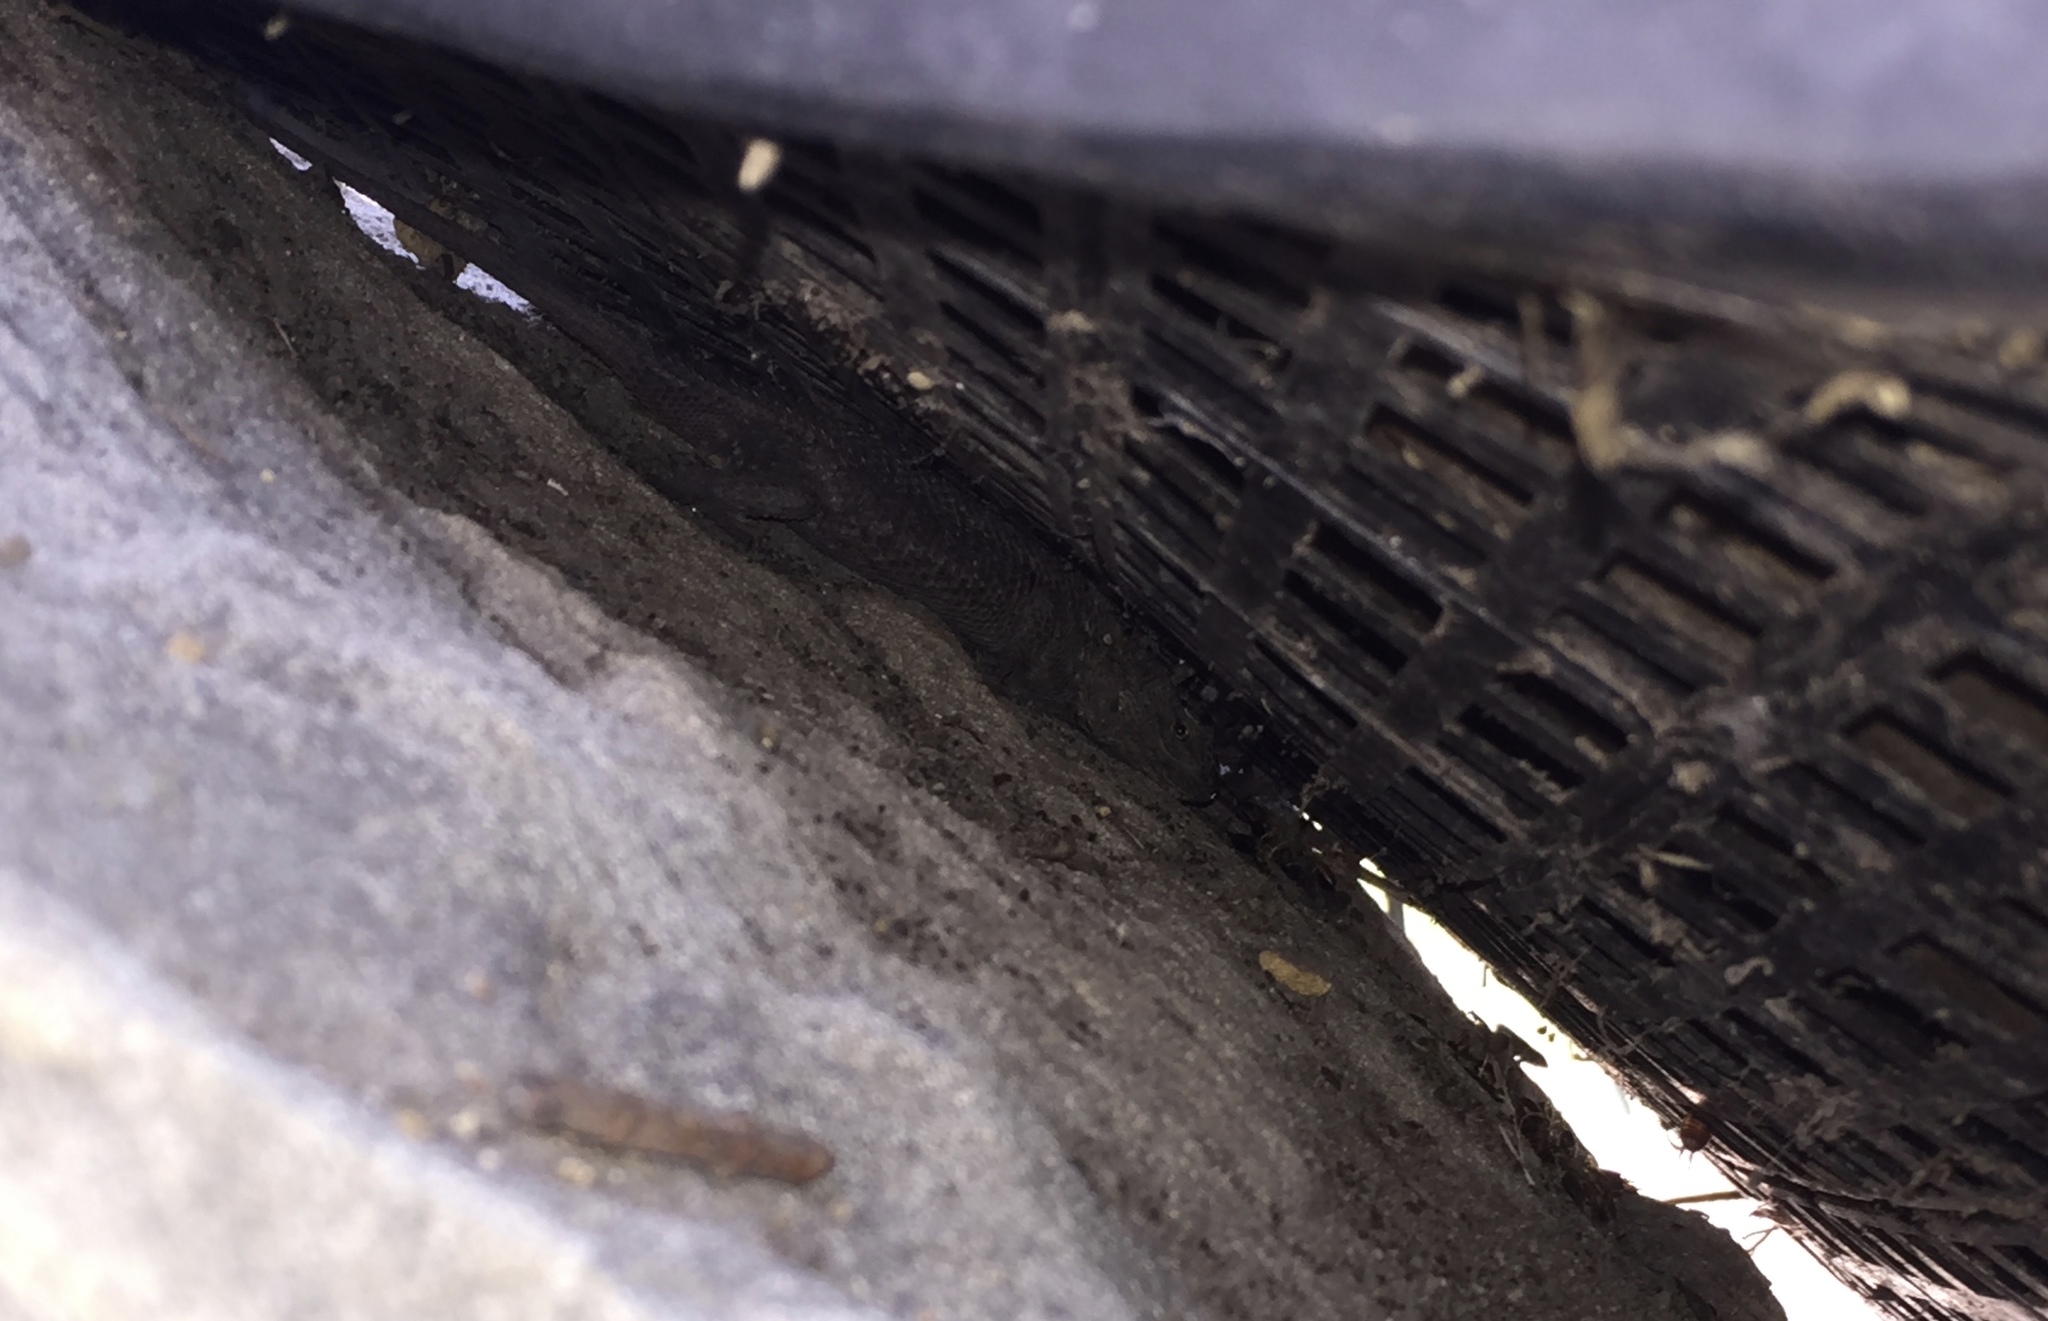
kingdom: Animalia
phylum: Chordata
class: Squamata
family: Phrynosomatidae
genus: Sceloporus
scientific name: Sceloporus occidentalis
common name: Western fence lizard
